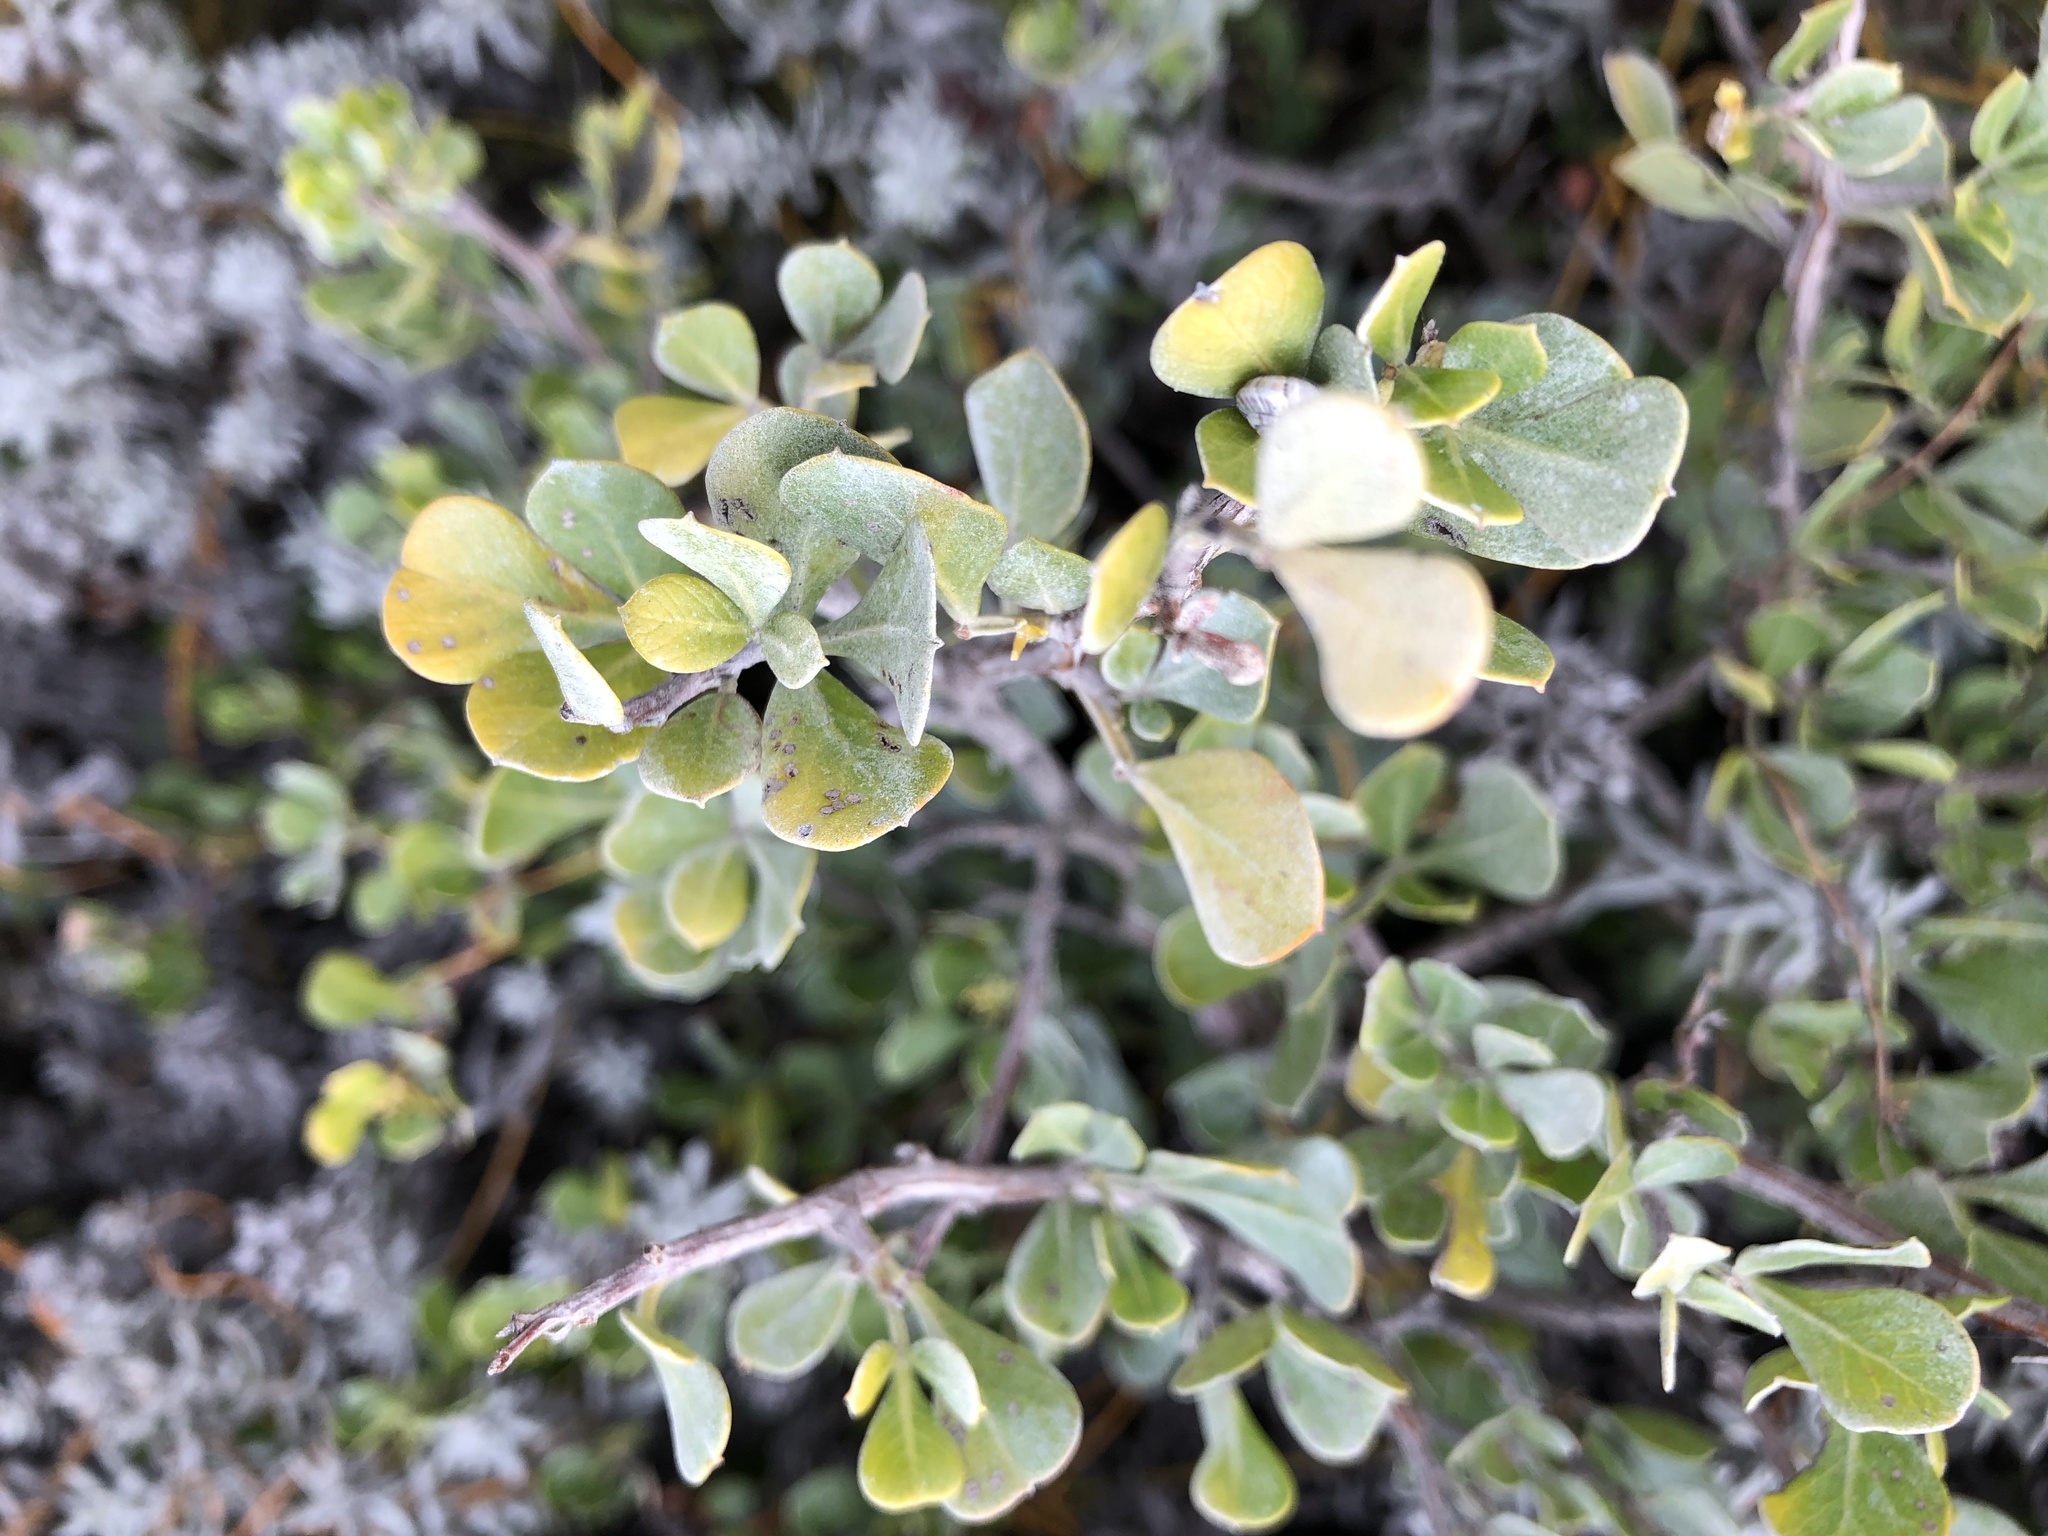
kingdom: Plantae
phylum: Tracheophyta
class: Magnoliopsida
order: Sapindales
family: Anacardiaceae
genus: Searsia
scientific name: Searsia glauca
